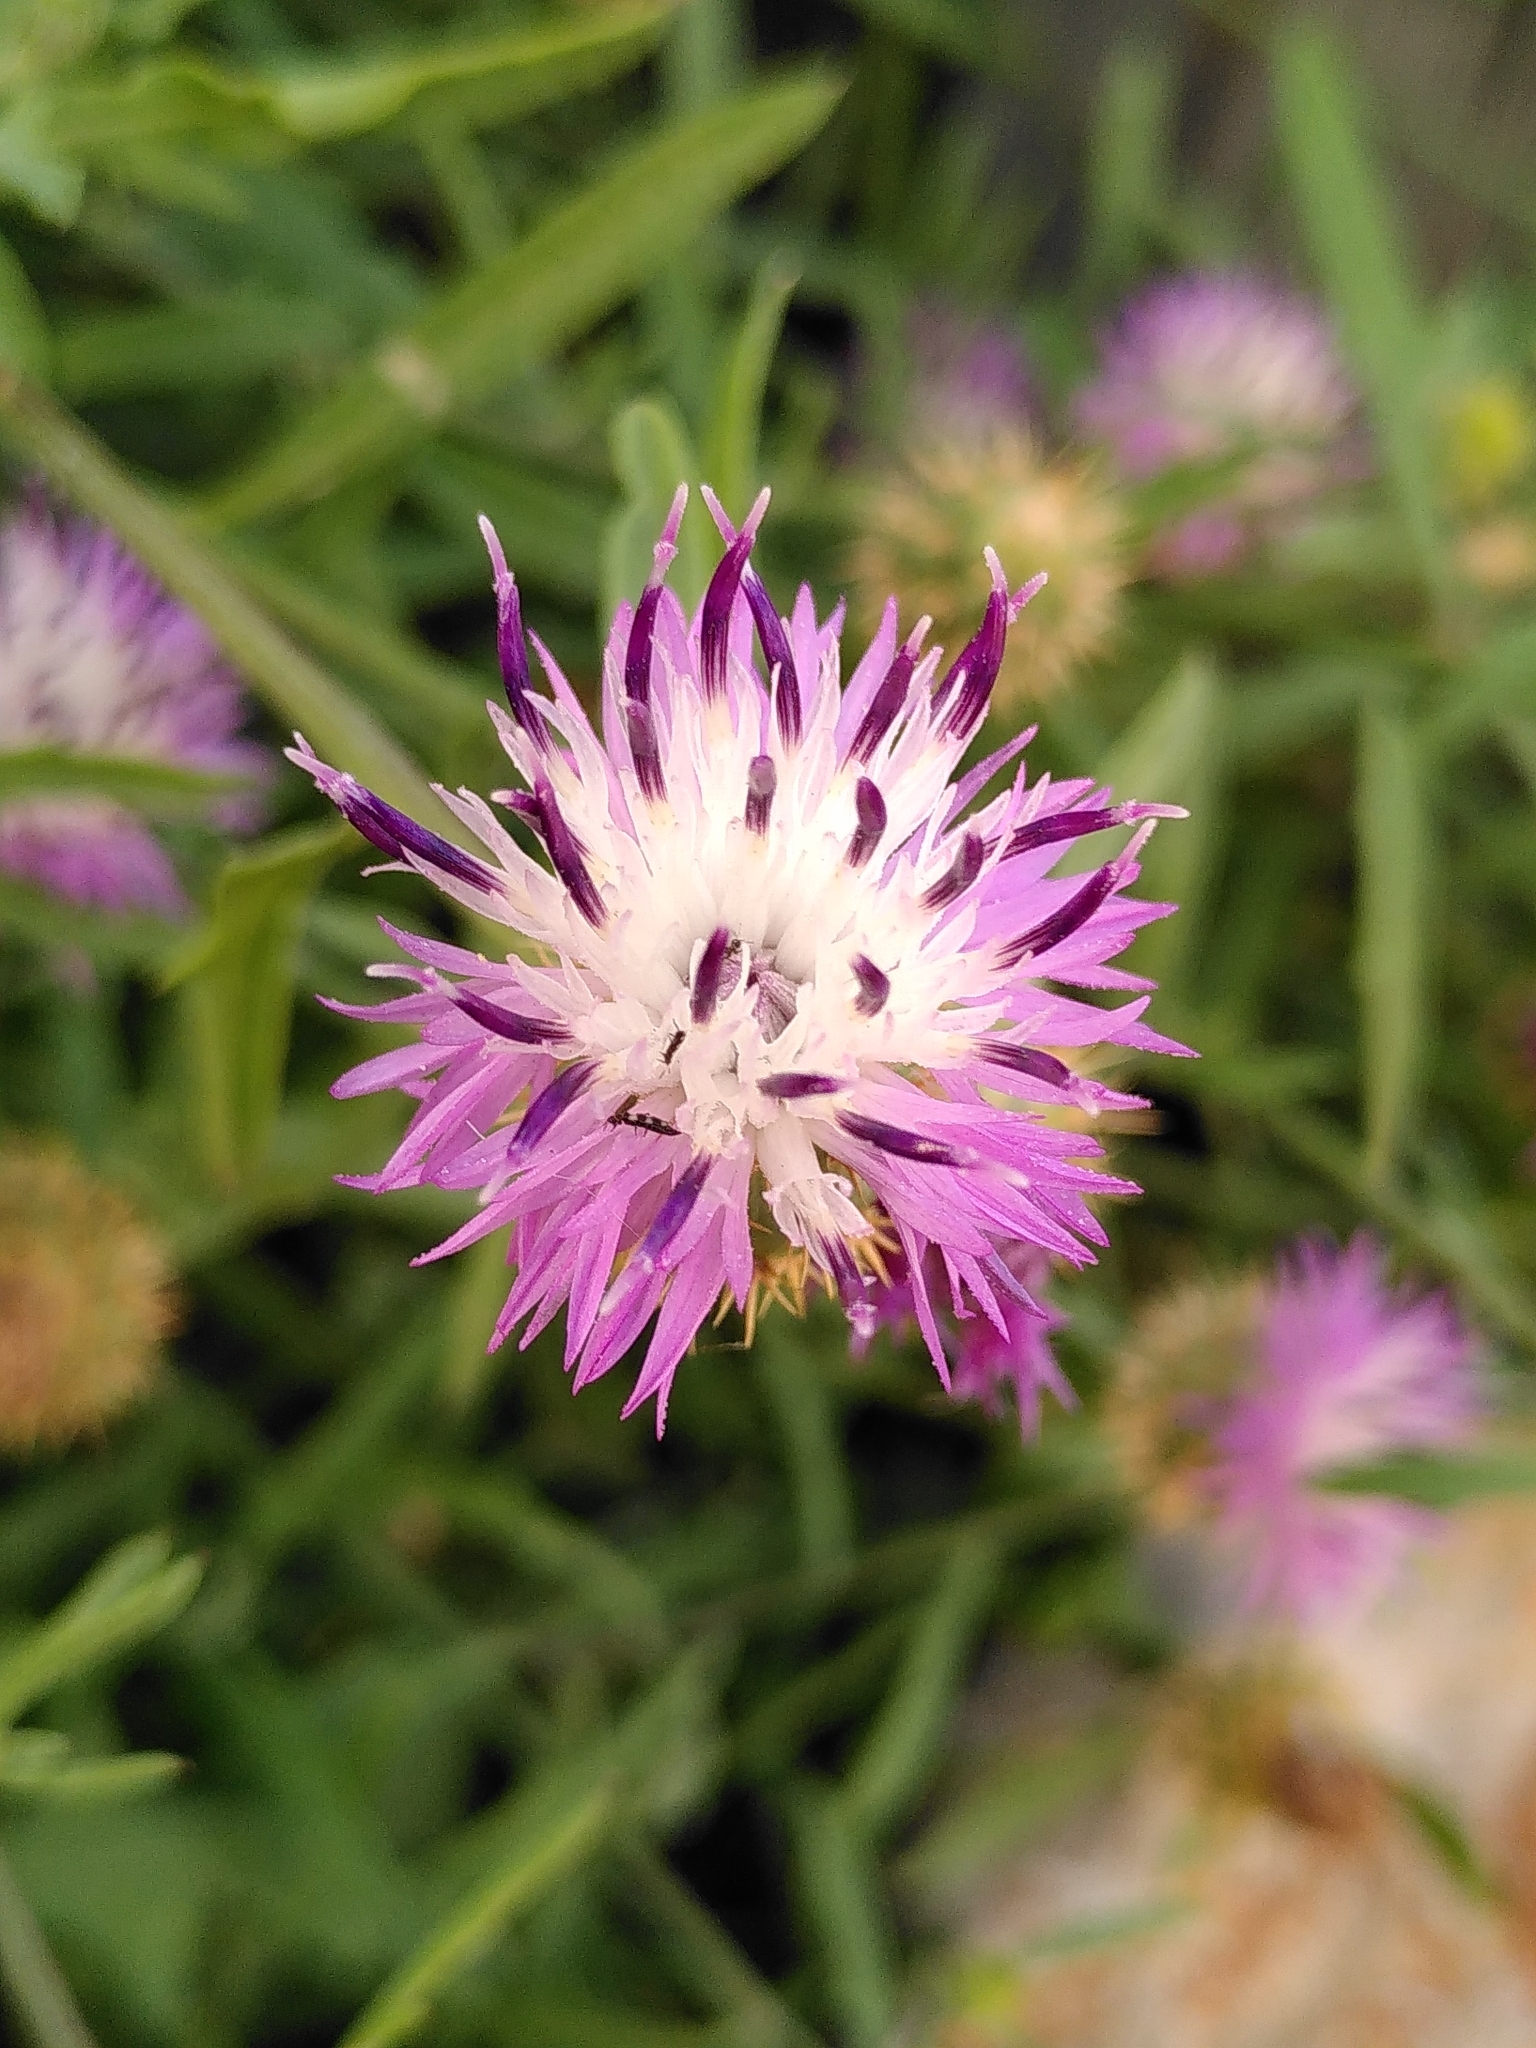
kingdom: Plantae
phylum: Tracheophyta
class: Magnoliopsida
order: Asterales
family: Asteraceae
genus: Centaurea
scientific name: Centaurea aspera
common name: Rough star-thistle
